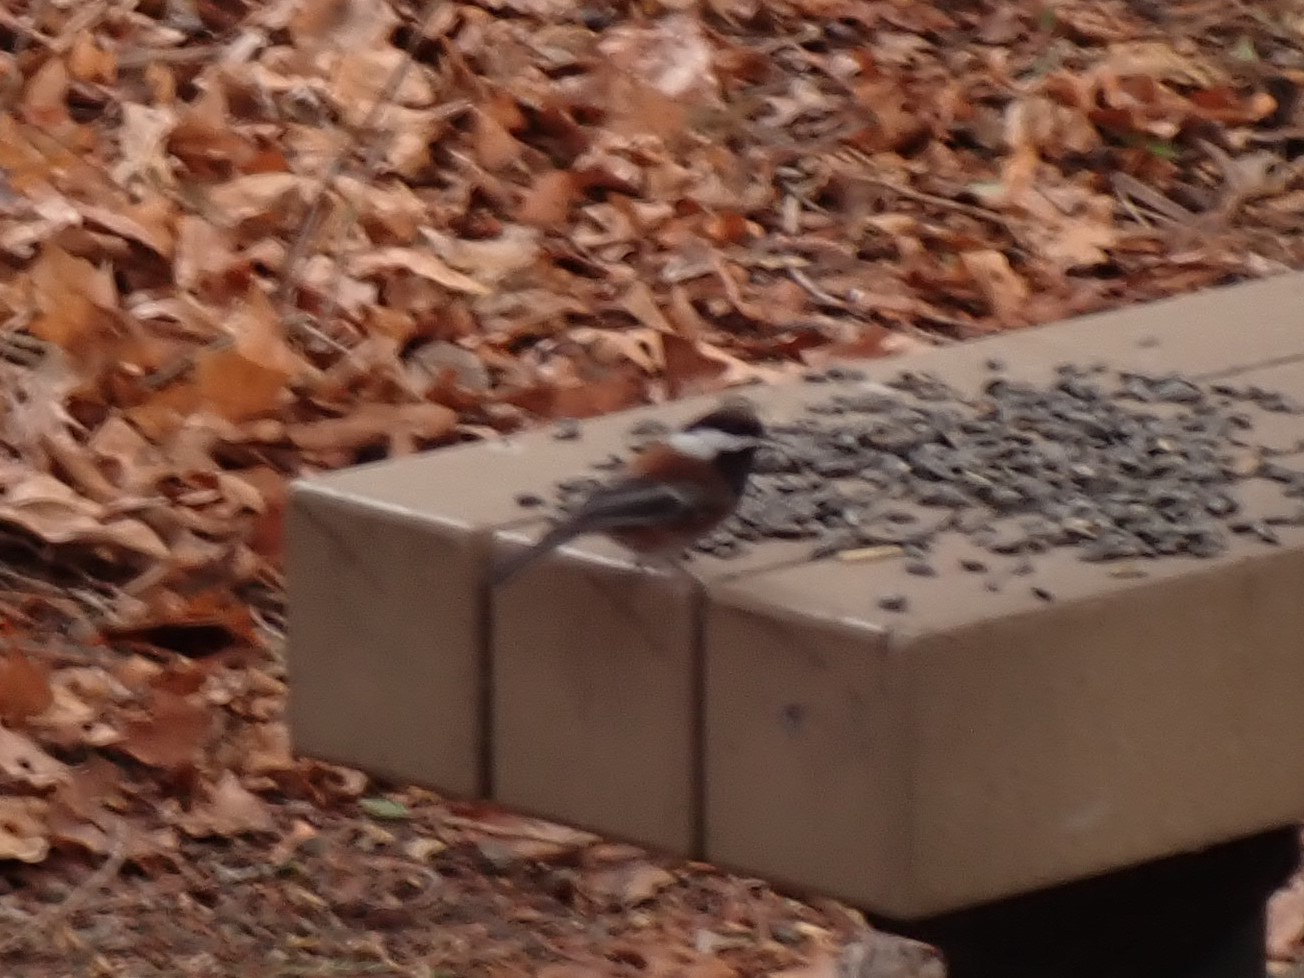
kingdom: Animalia
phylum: Chordata
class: Aves
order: Passeriformes
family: Paridae
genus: Poecile
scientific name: Poecile rufescens
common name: Chestnut-backed chickadee
